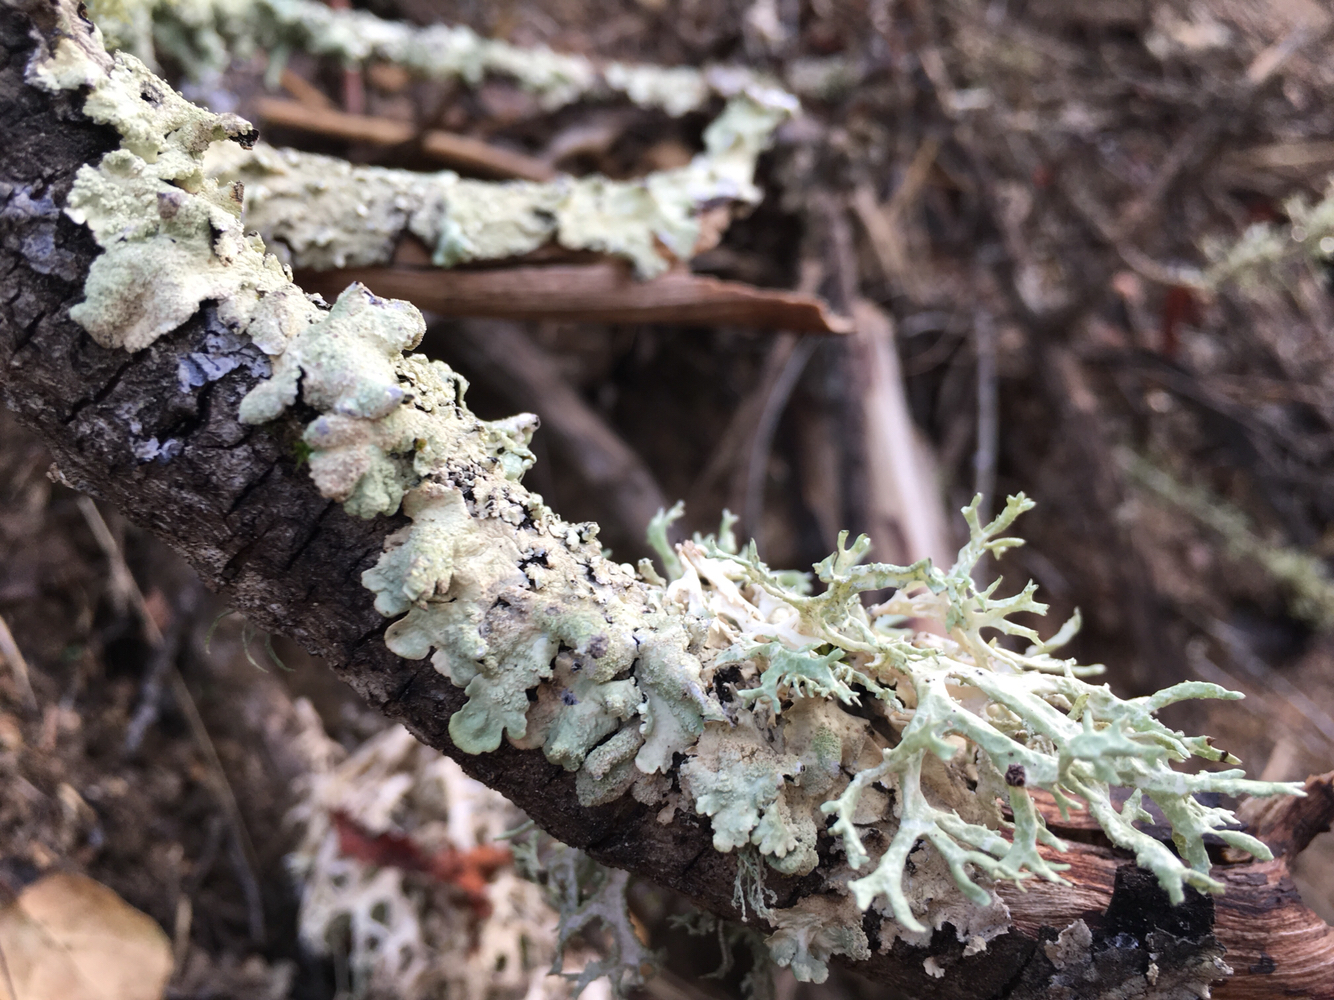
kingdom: Fungi
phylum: Ascomycota
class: Lecanoromycetes
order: Lecanorales
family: Parmeliaceae
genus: Evernia
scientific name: Evernia prunastri
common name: Oak moss
